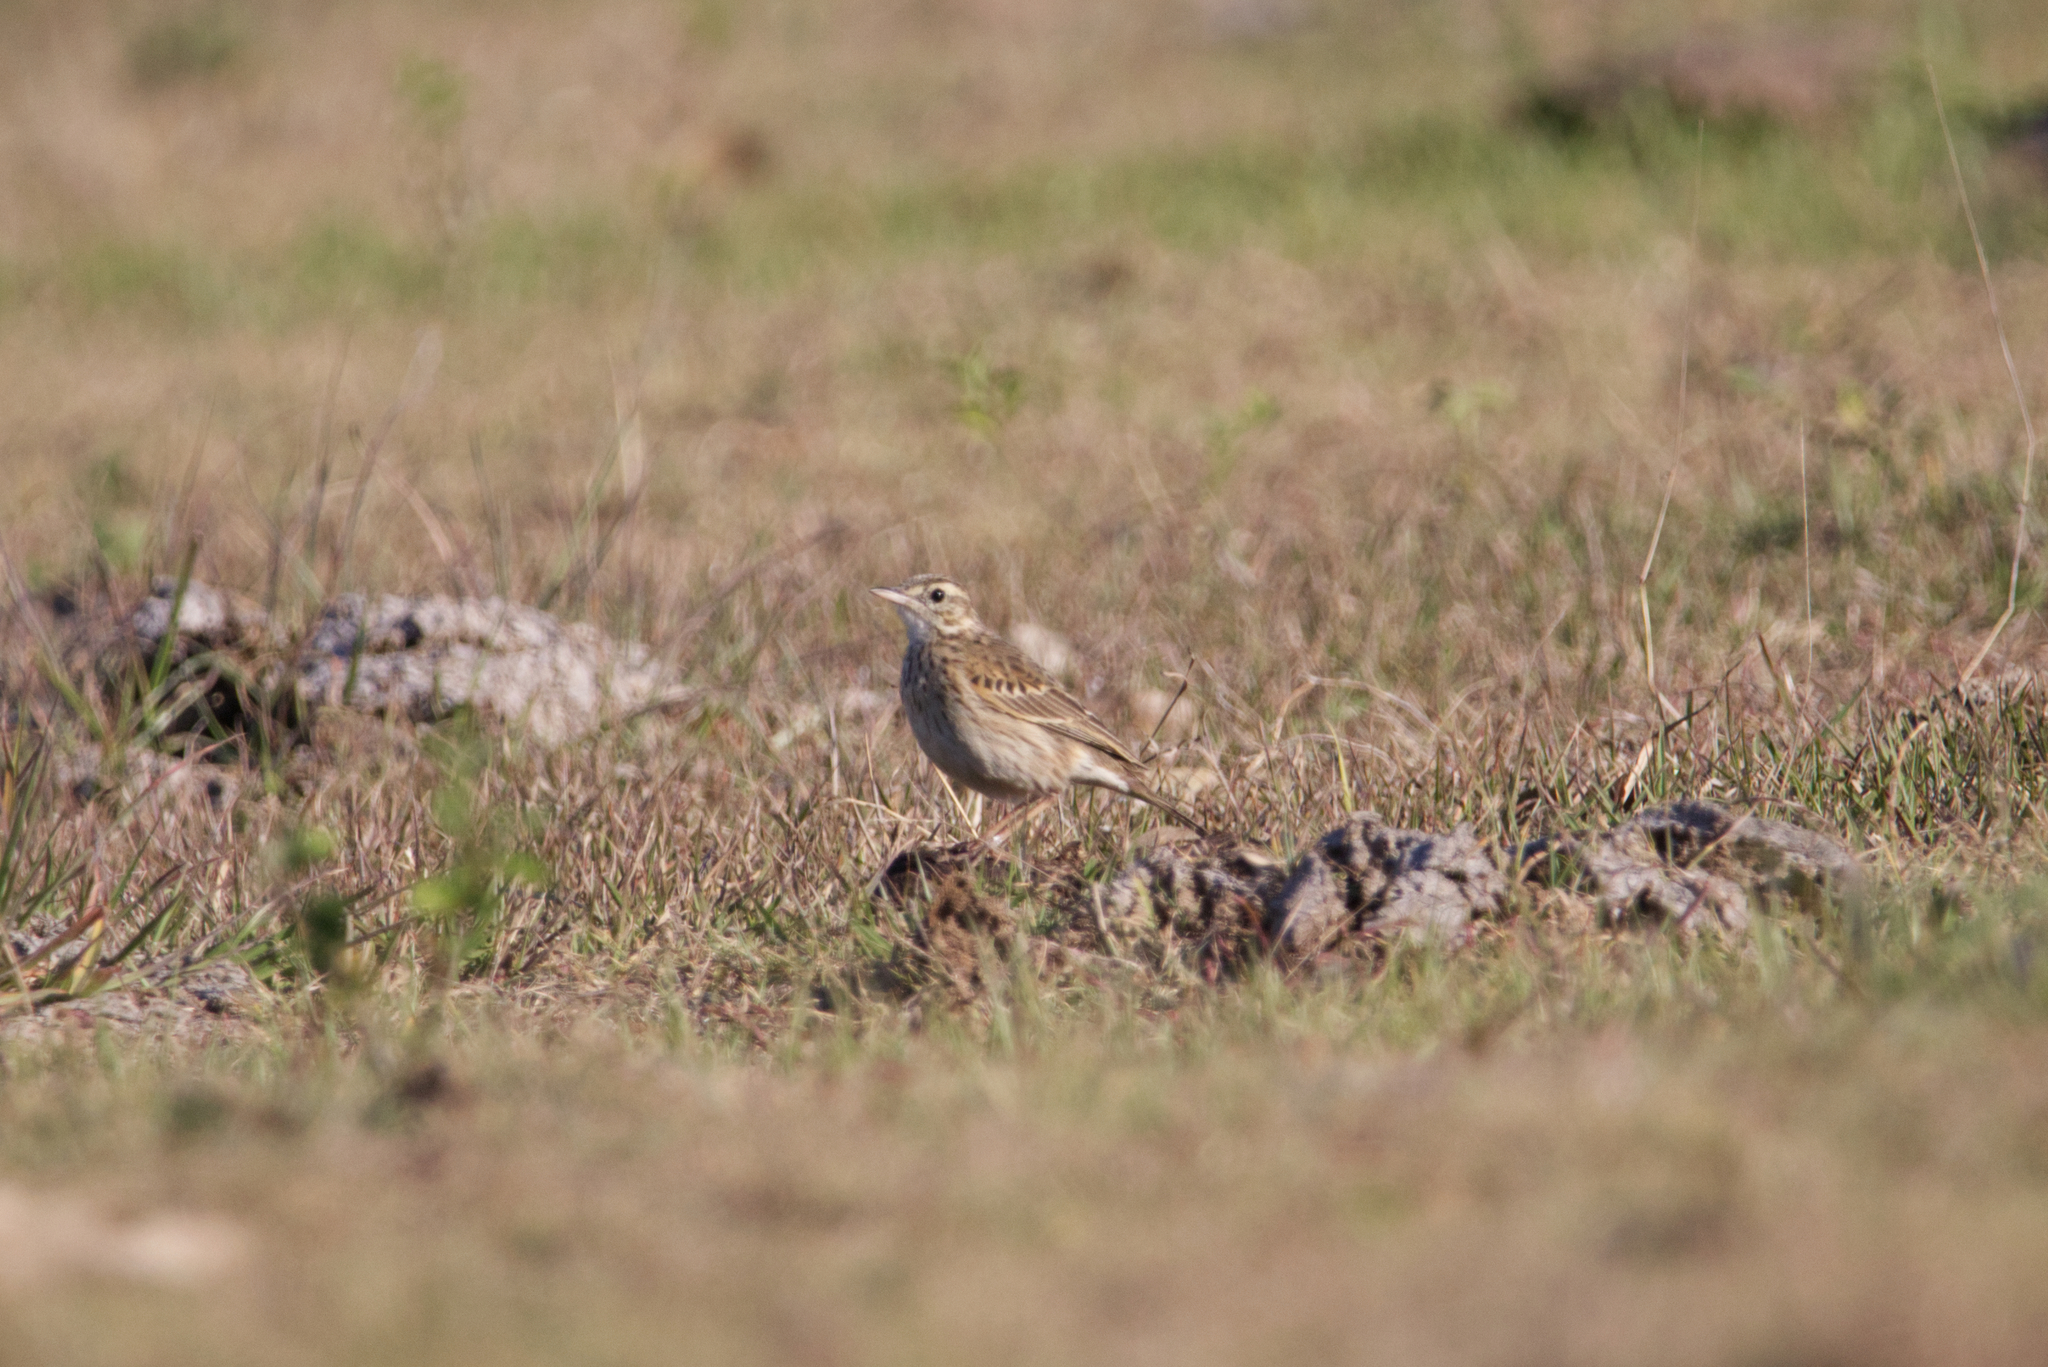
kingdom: Animalia
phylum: Chordata
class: Aves
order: Passeriformes
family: Motacillidae
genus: Anthus
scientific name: Anthus australis
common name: Australian pipit
